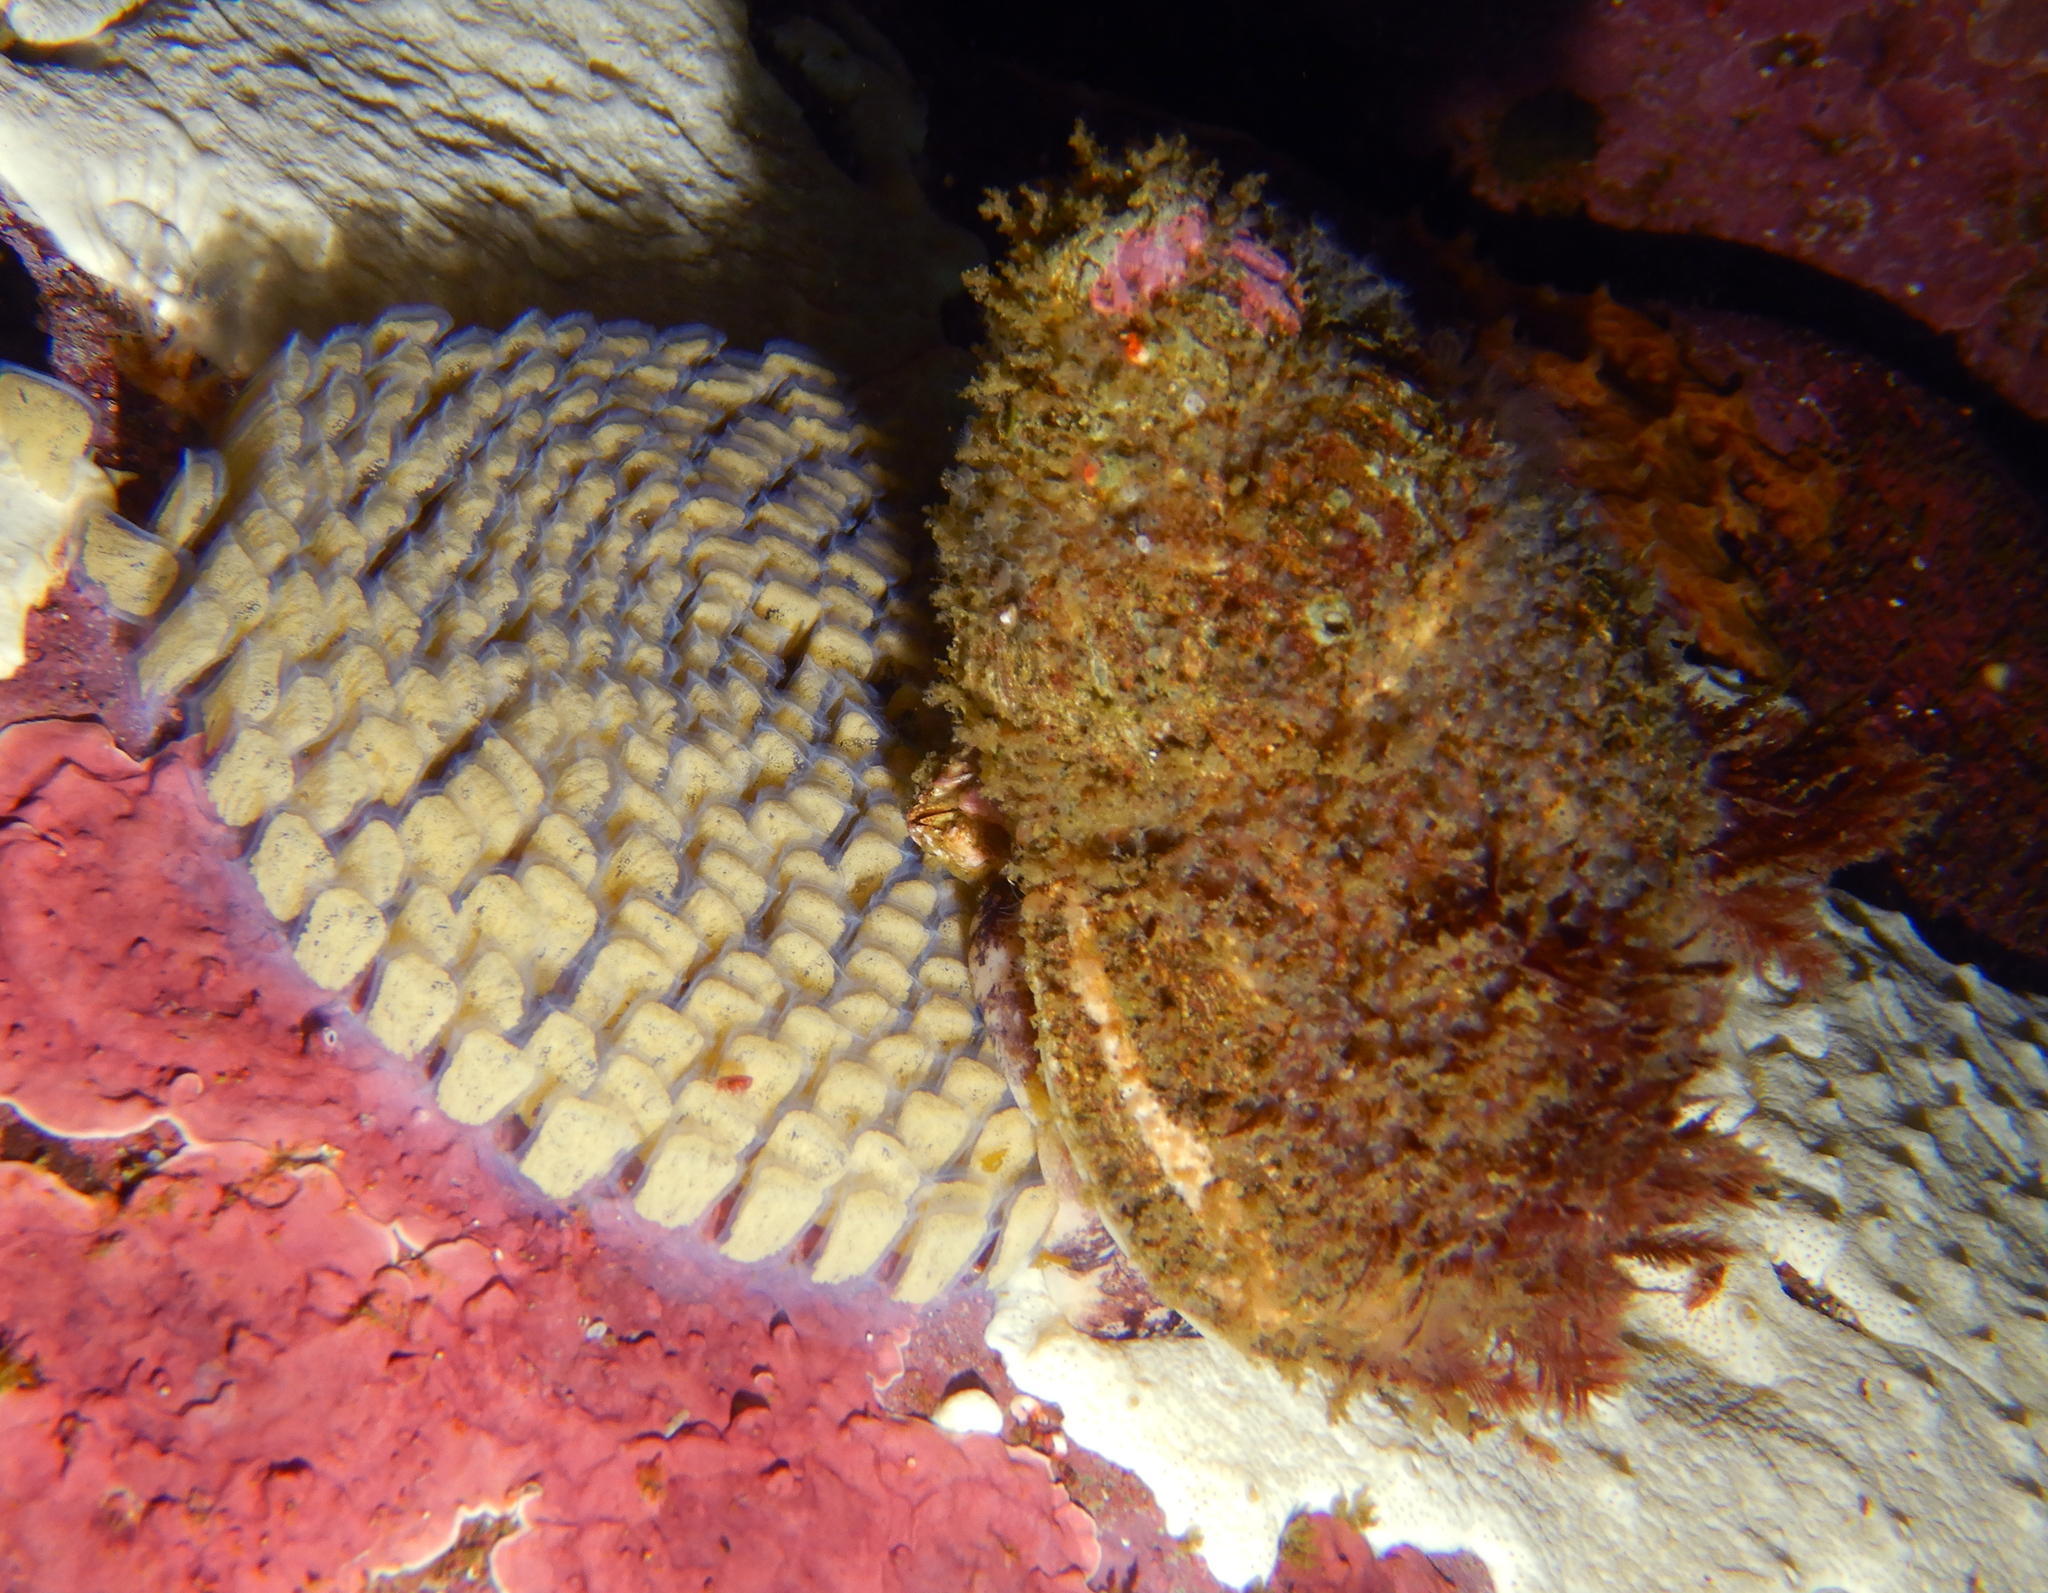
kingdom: Animalia
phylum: Mollusca
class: Gastropoda
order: Littorinimorpha
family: Cymatiidae
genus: Fusitriton
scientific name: Fusitriton magellanicus
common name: Magellanic triton
